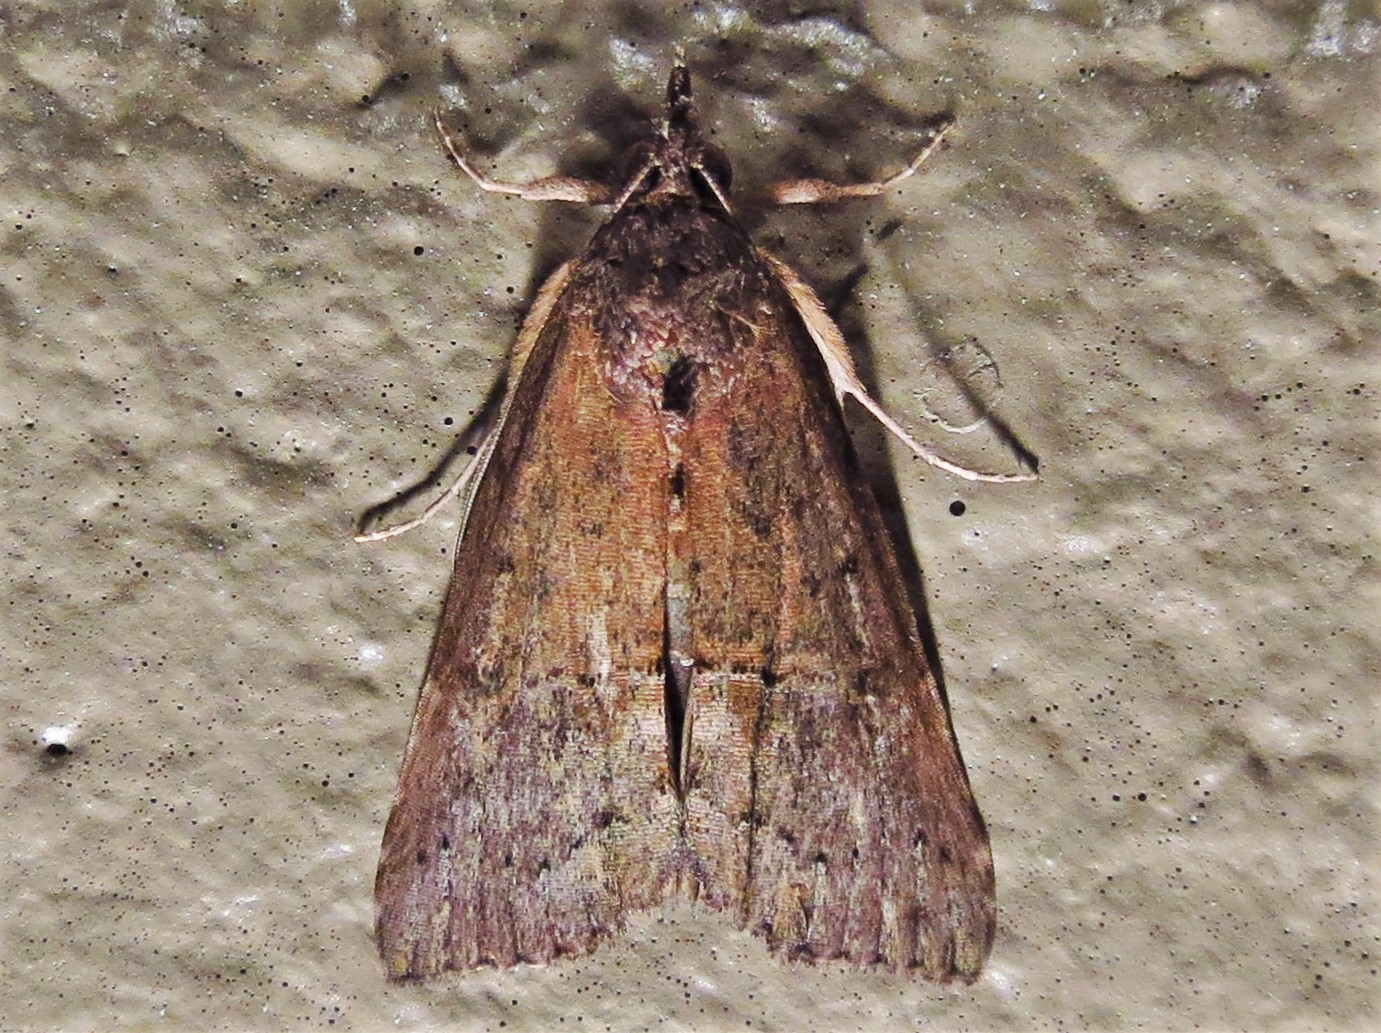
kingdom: Animalia
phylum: Arthropoda
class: Insecta
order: Lepidoptera
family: Erebidae
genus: Hypena
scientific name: Hypena scabra
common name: Green cloverworm
